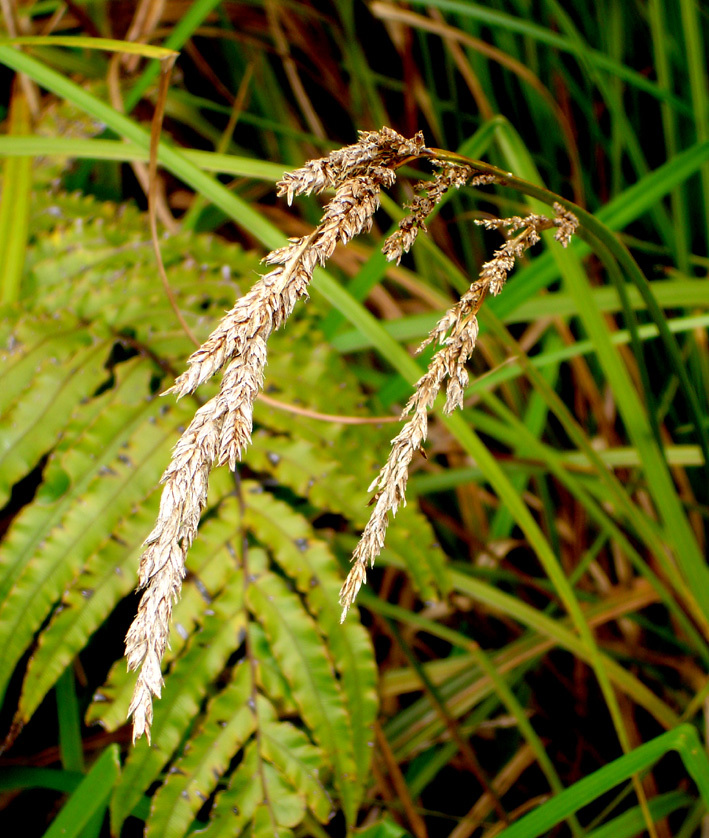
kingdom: Plantae
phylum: Tracheophyta
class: Liliopsida
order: Poales
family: Cyperaceae
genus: Carex
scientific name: Carex sectoides
